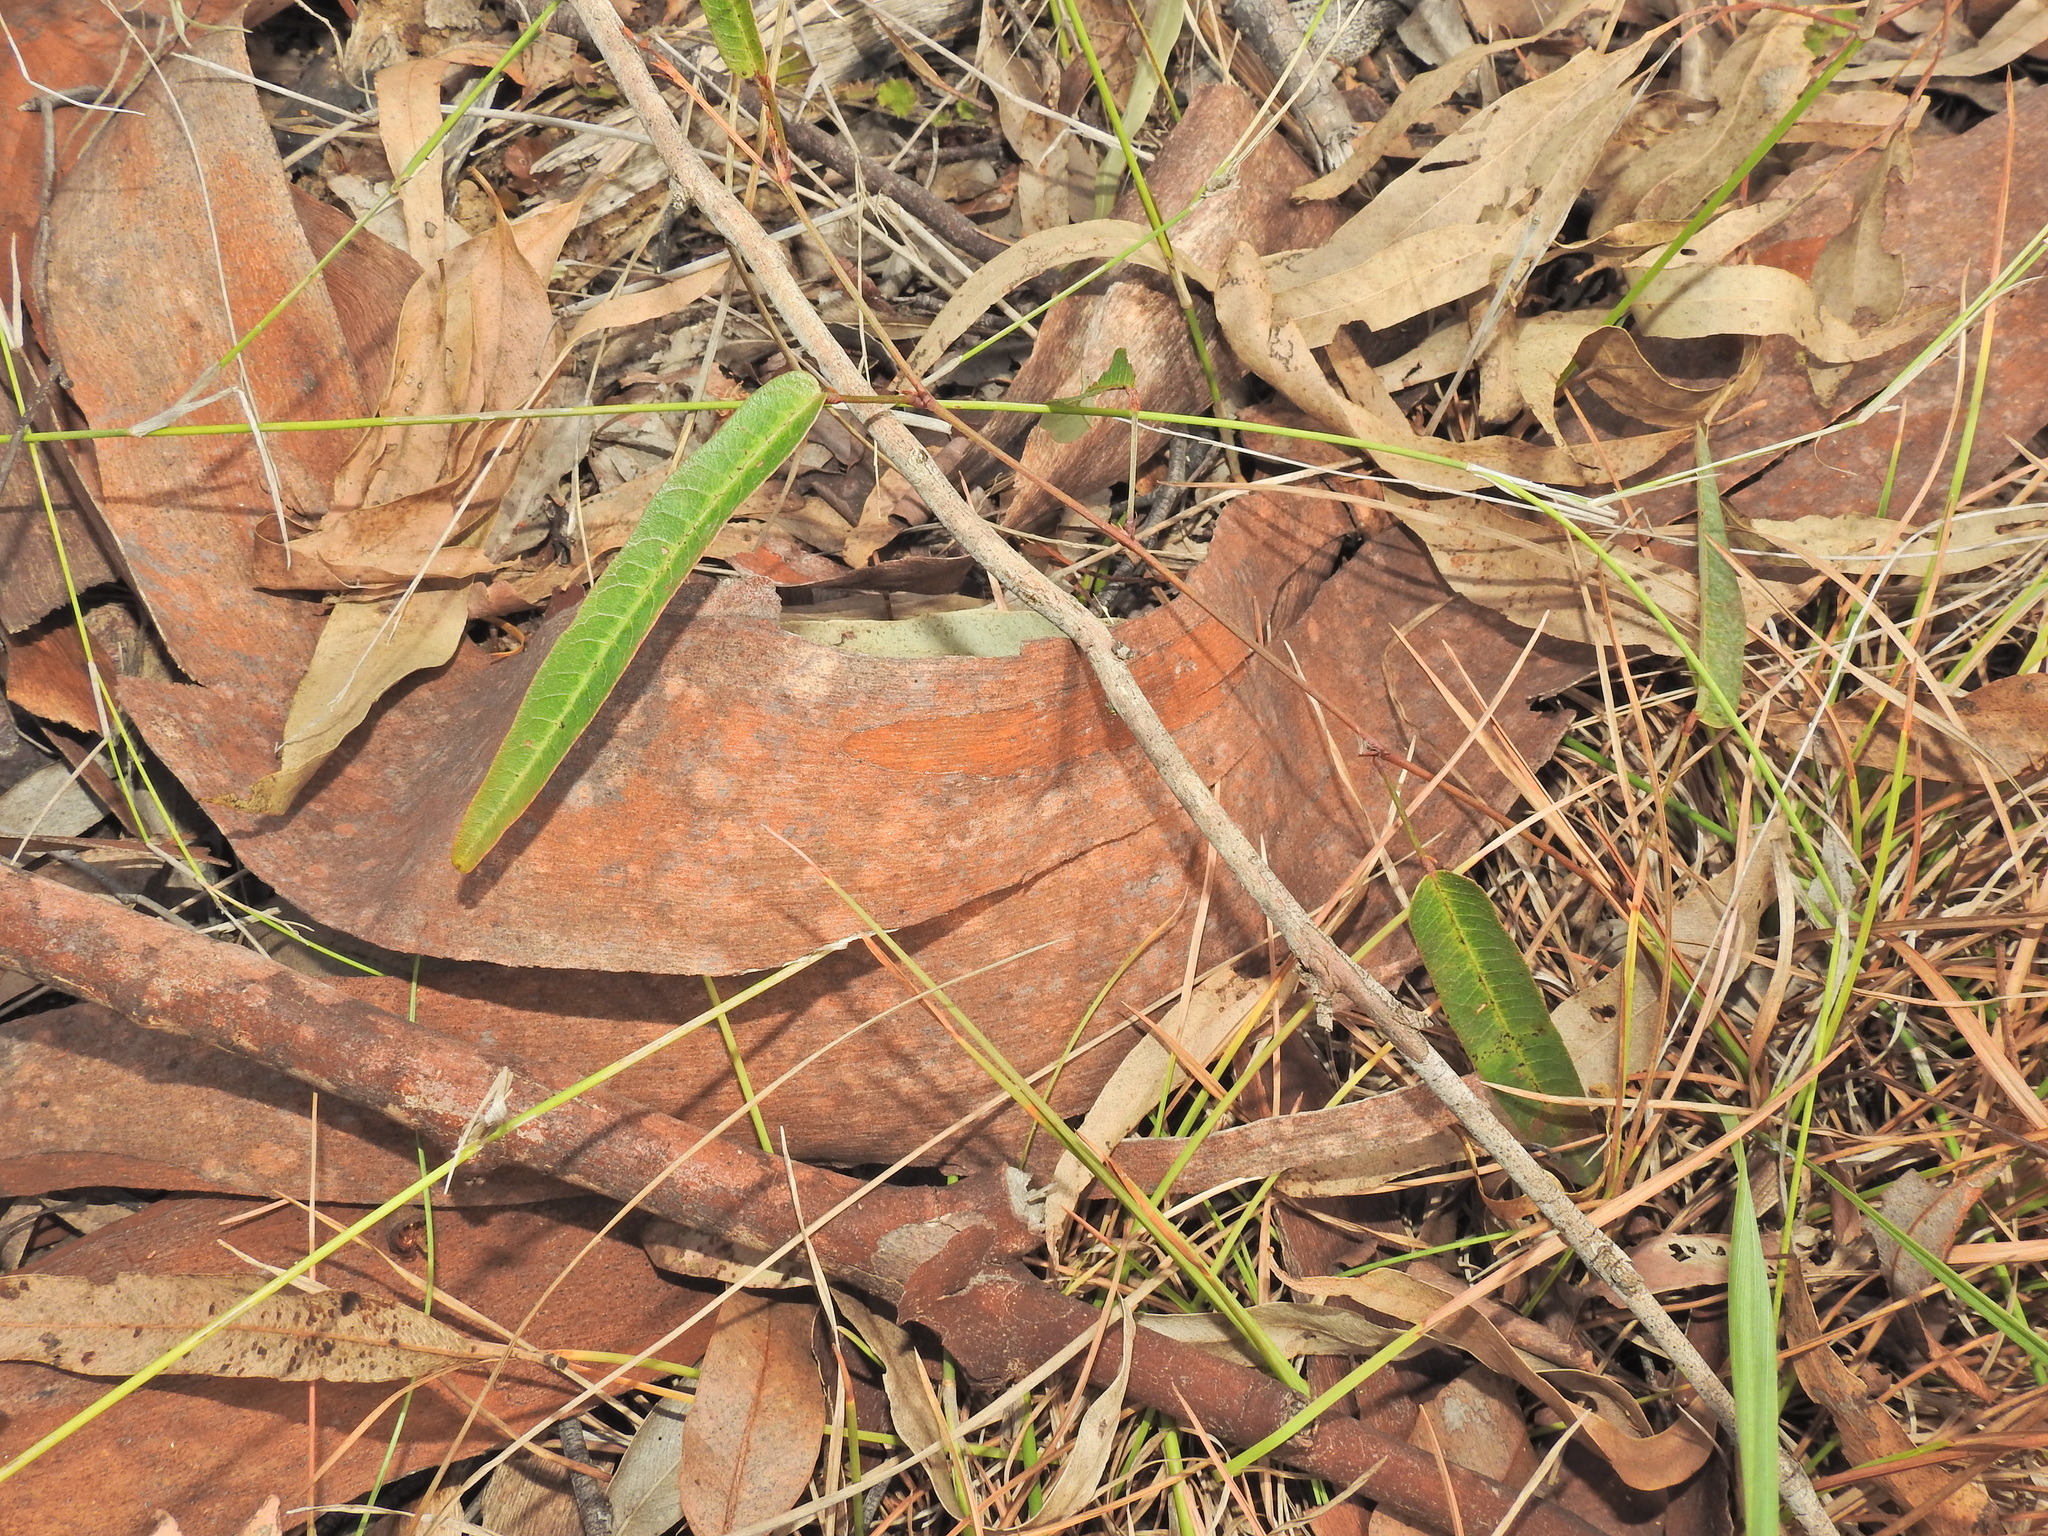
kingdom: Plantae
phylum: Tracheophyta
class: Magnoliopsida
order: Fabales
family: Fabaceae
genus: Hardenbergia
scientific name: Hardenbergia violacea
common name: Coral-pea
